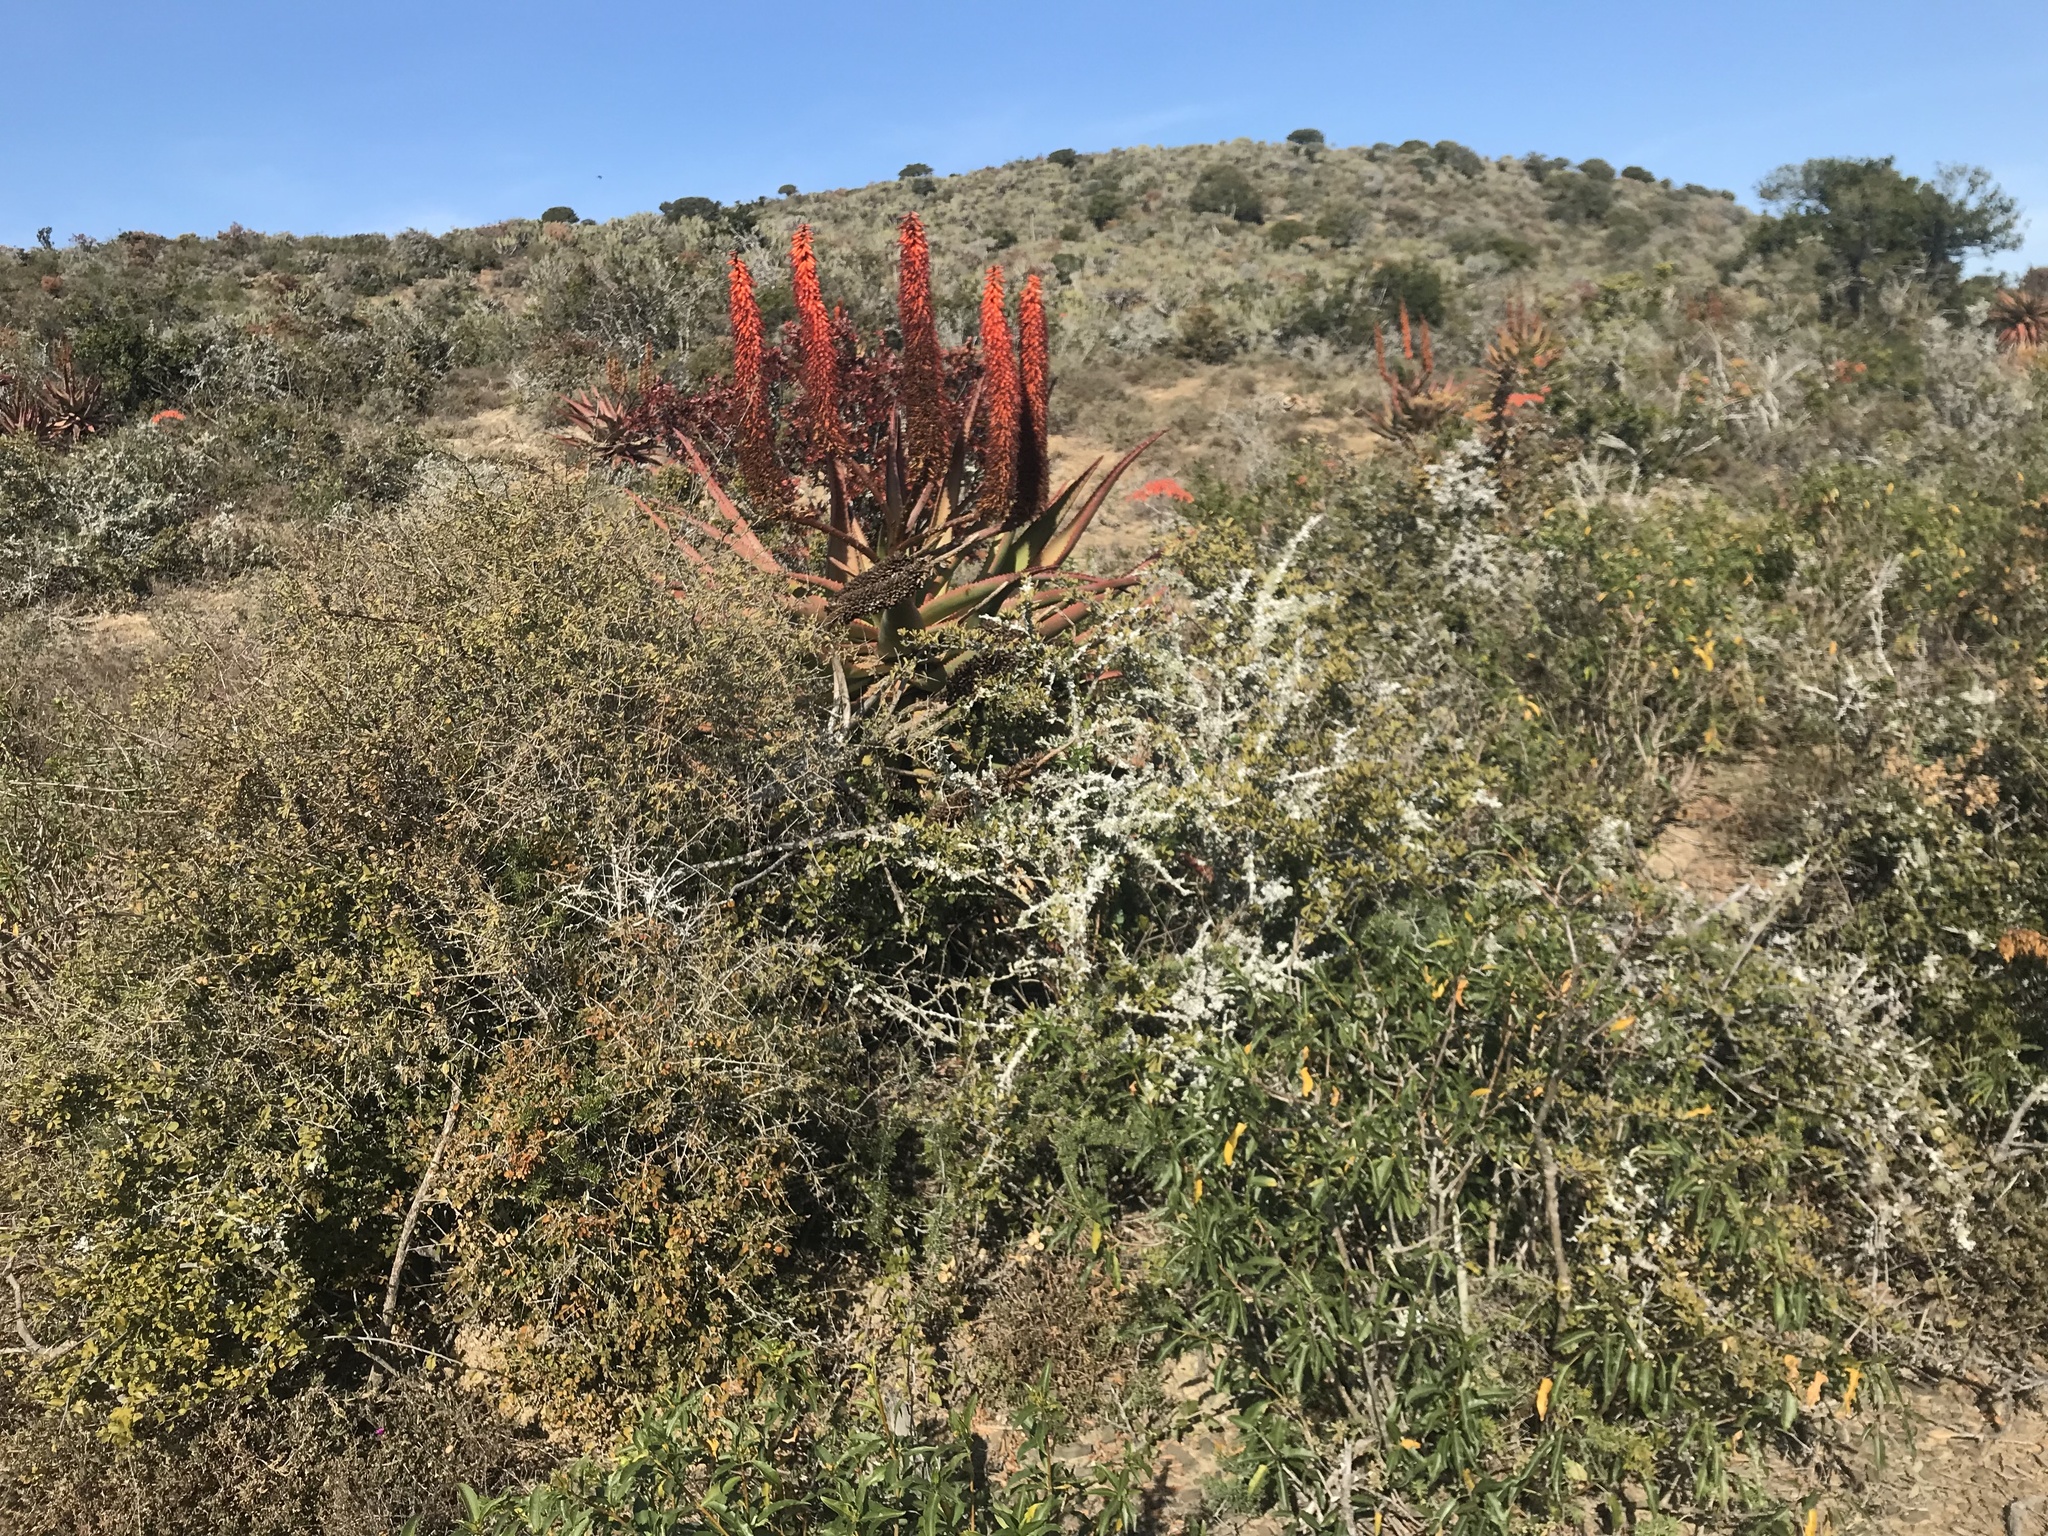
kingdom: Plantae
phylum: Tracheophyta
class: Liliopsida
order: Asparagales
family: Asphodelaceae
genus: Aloe
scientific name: Aloe ferox
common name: Bitter aloe
